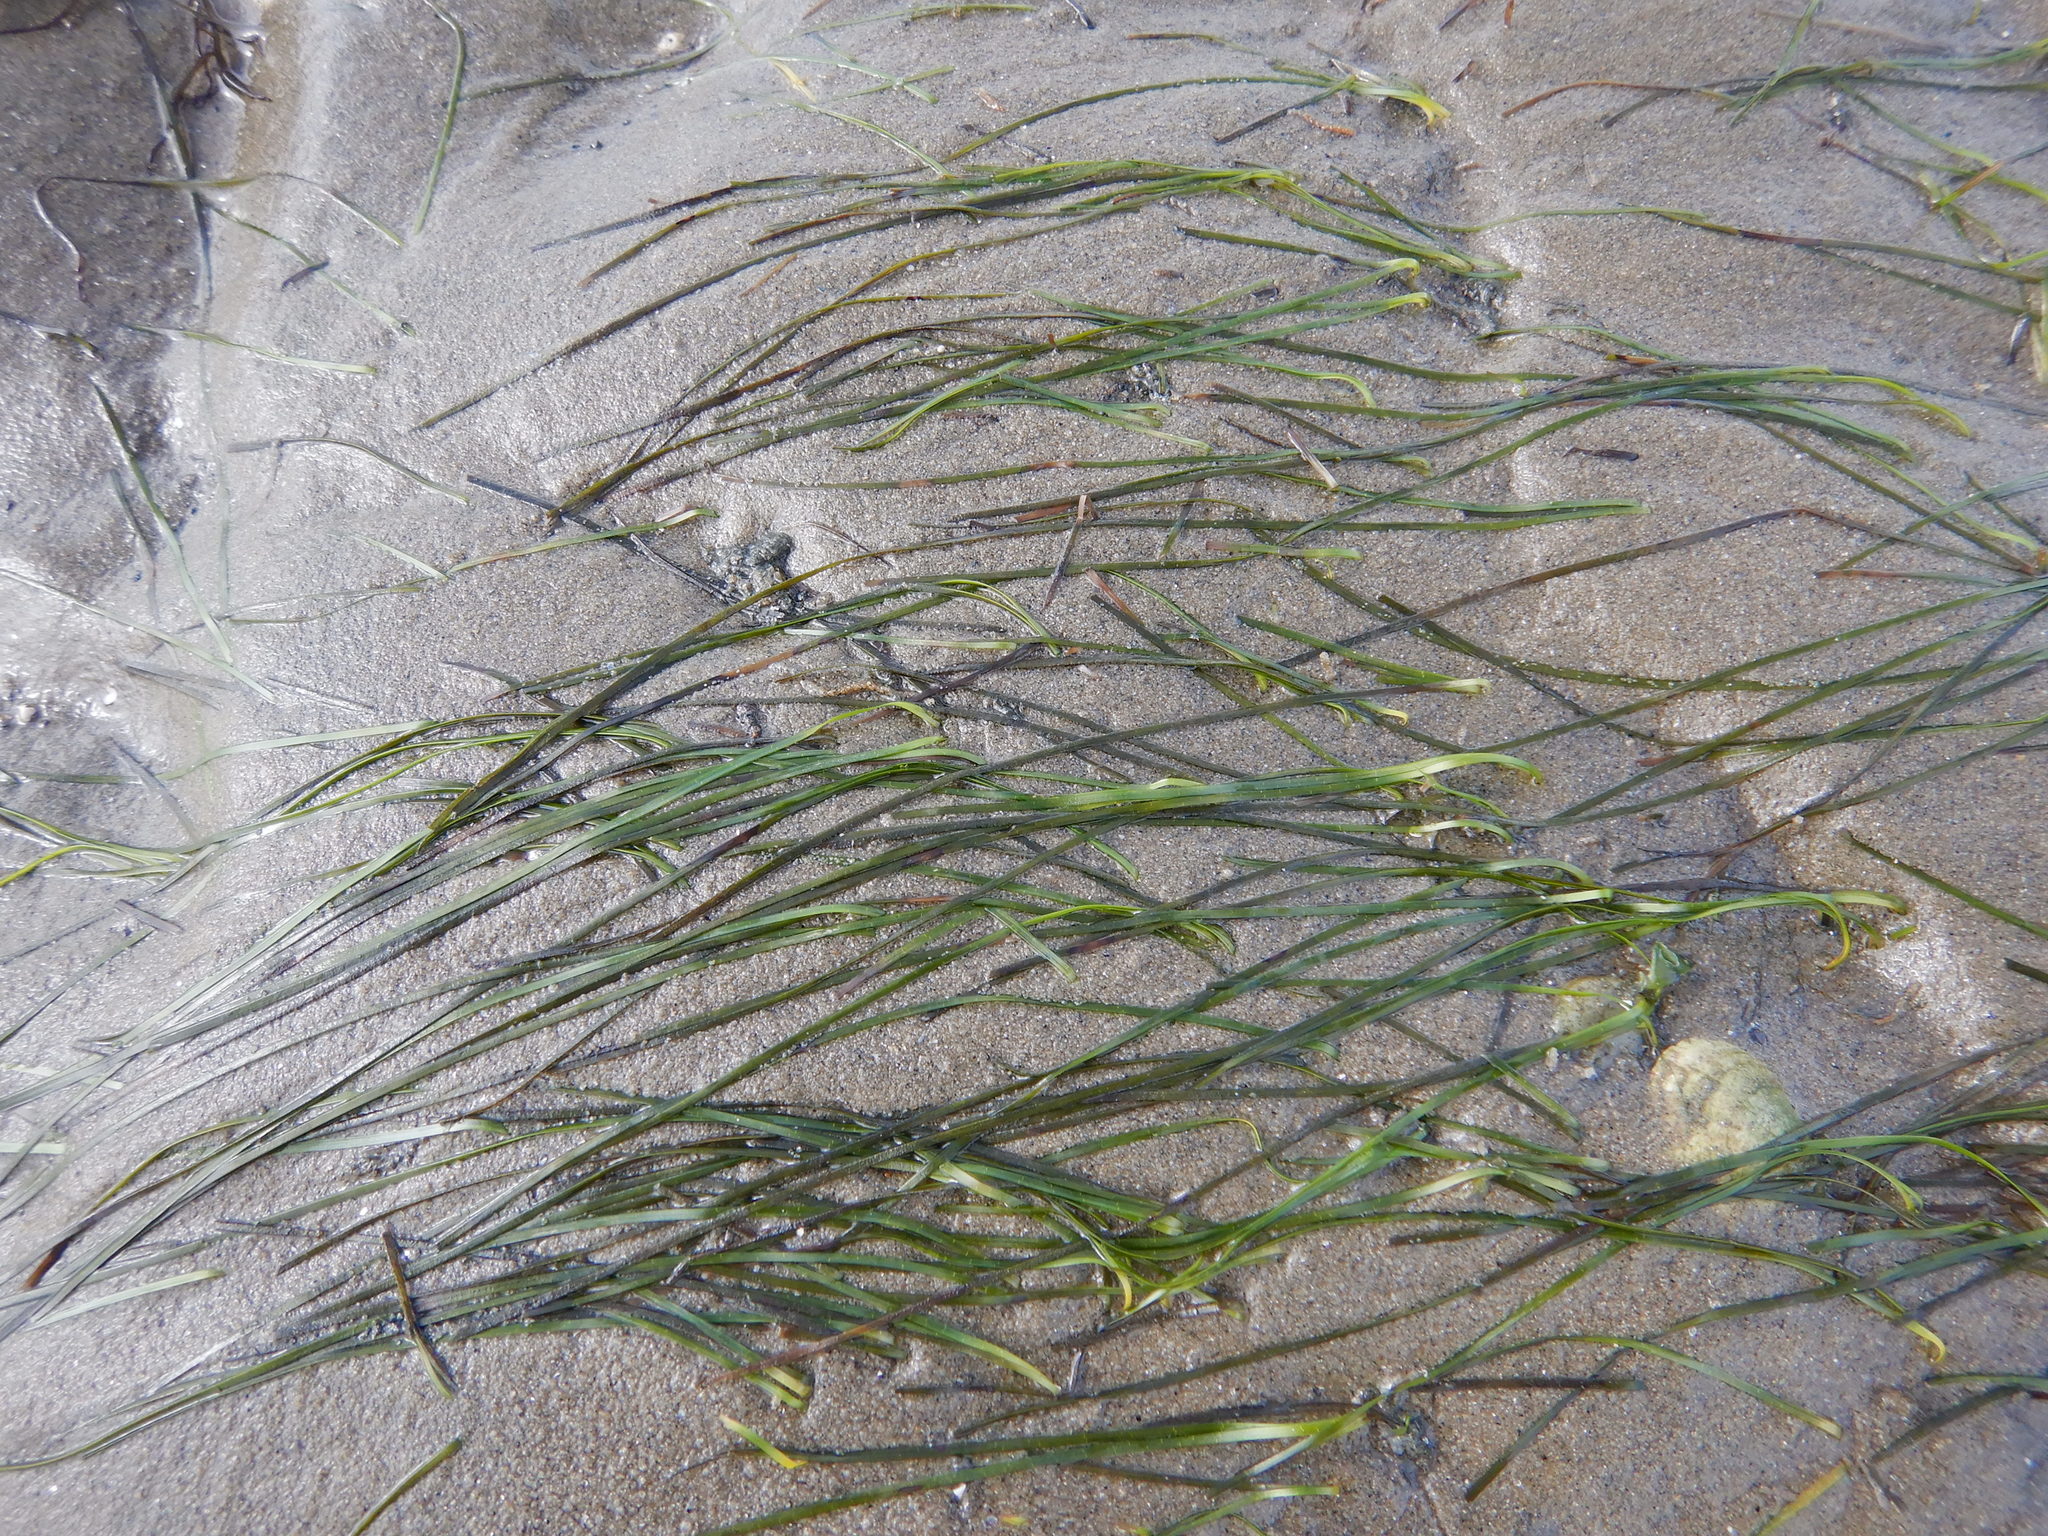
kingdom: Plantae
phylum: Tracheophyta
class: Liliopsida
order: Alismatales
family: Zosteraceae
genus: Zostera
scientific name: Zostera noltii
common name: Dwarf eelgrass
